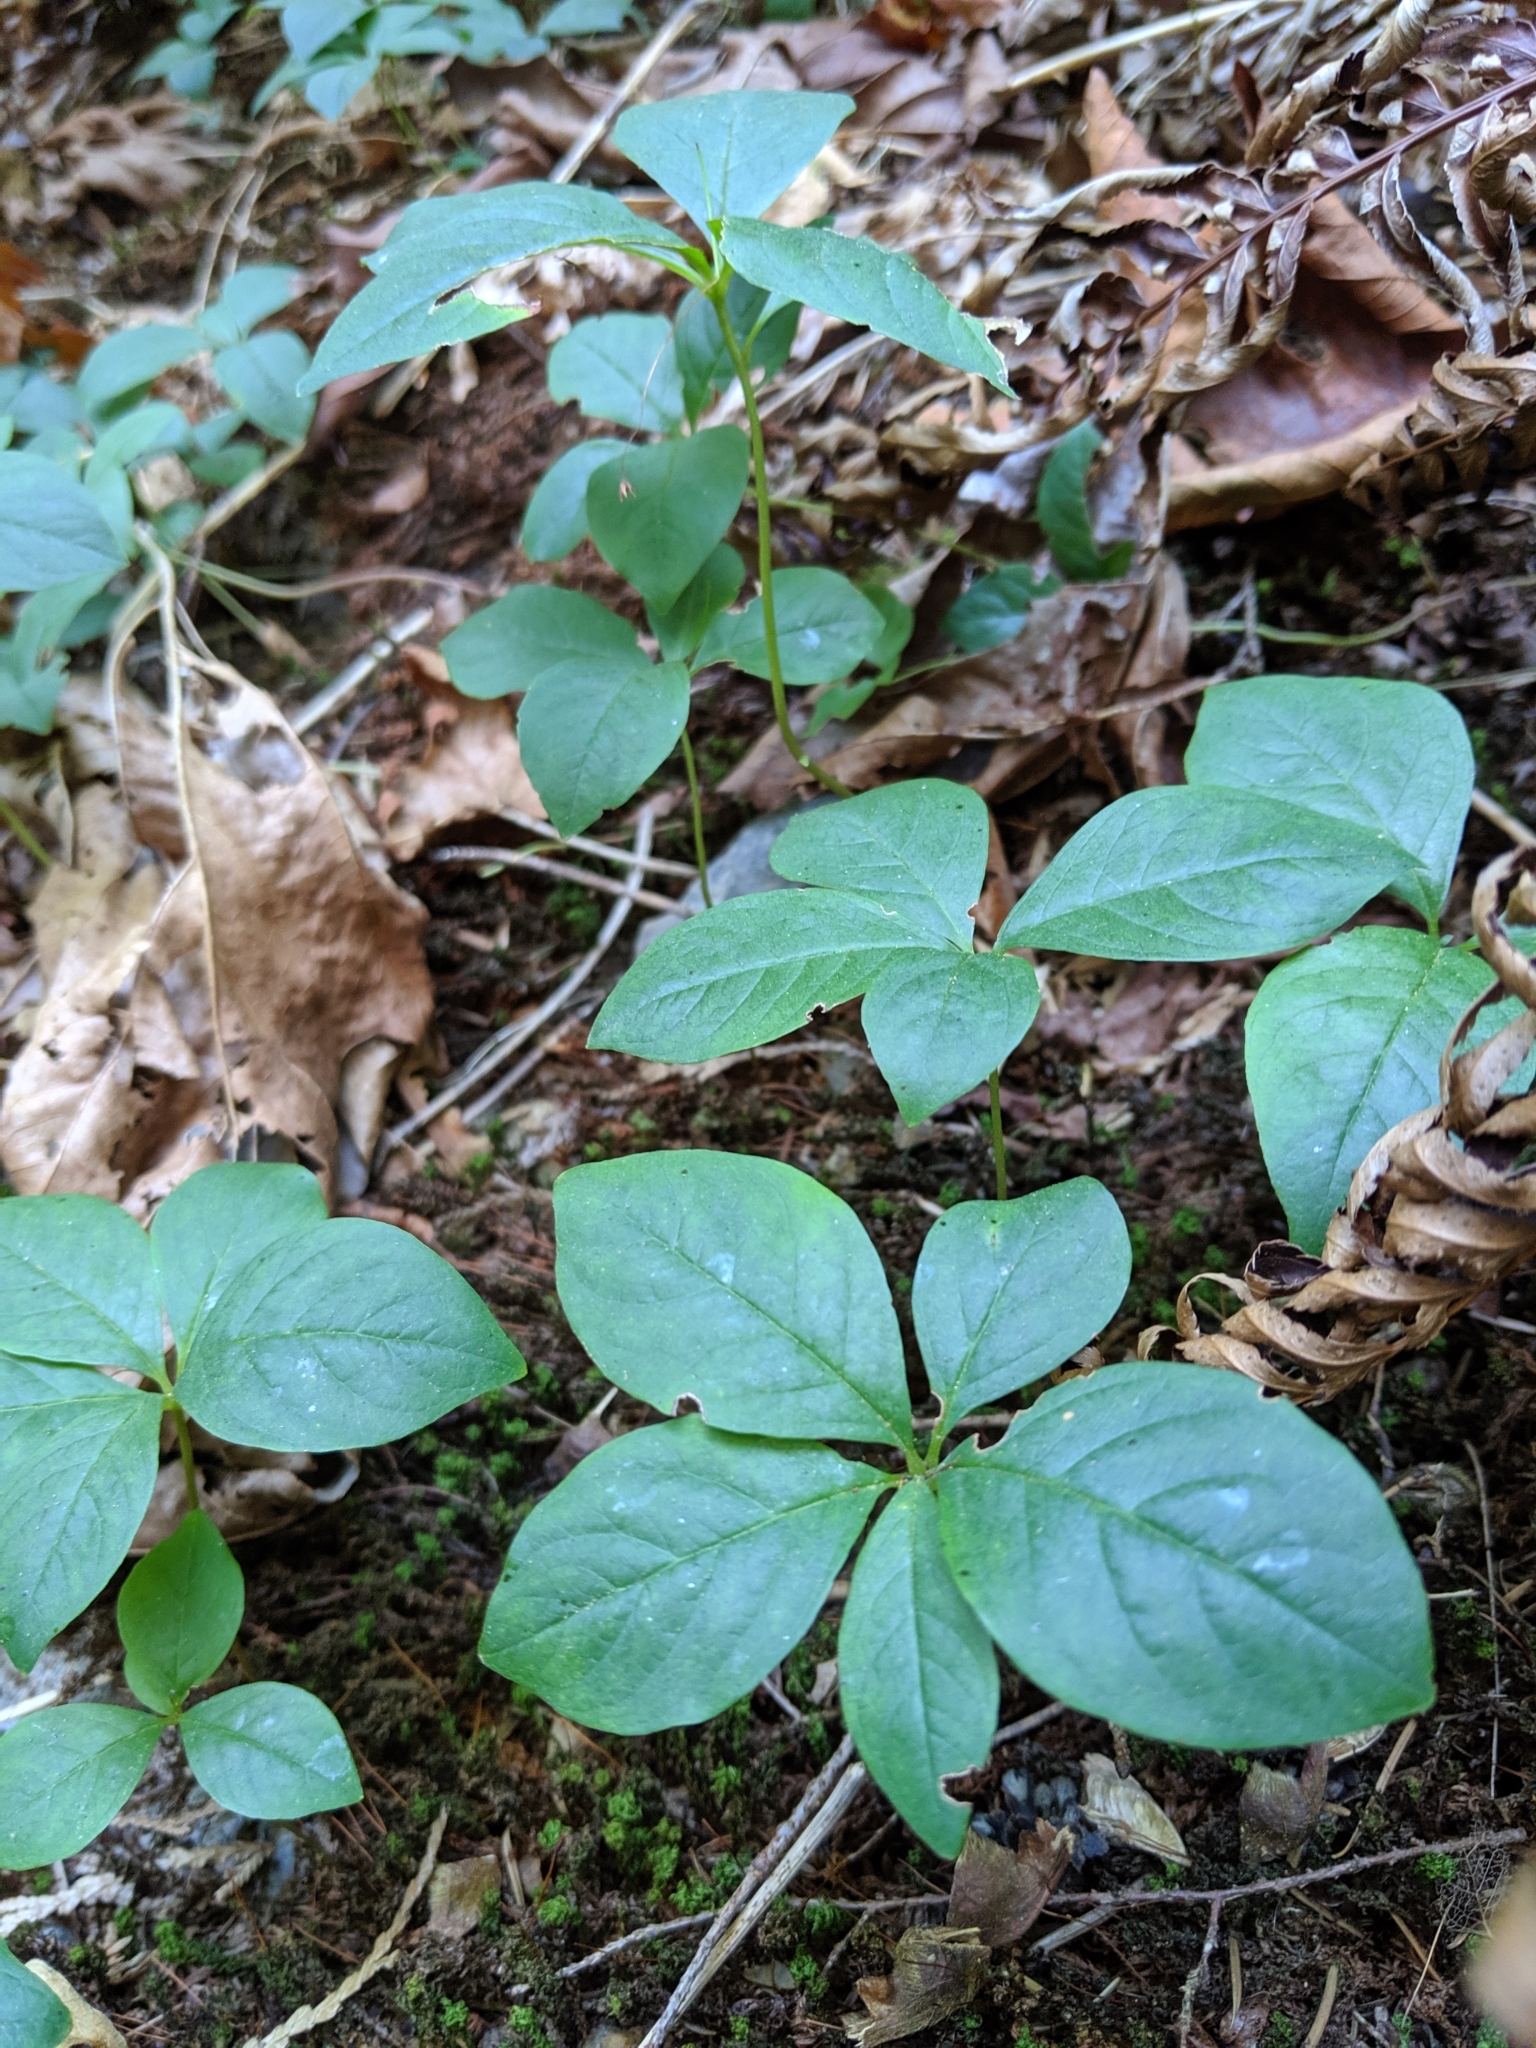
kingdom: Plantae
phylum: Tracheophyta
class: Magnoliopsida
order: Ericales
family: Primulaceae
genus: Lysimachia
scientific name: Lysimachia latifolia
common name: Pacific starflower
